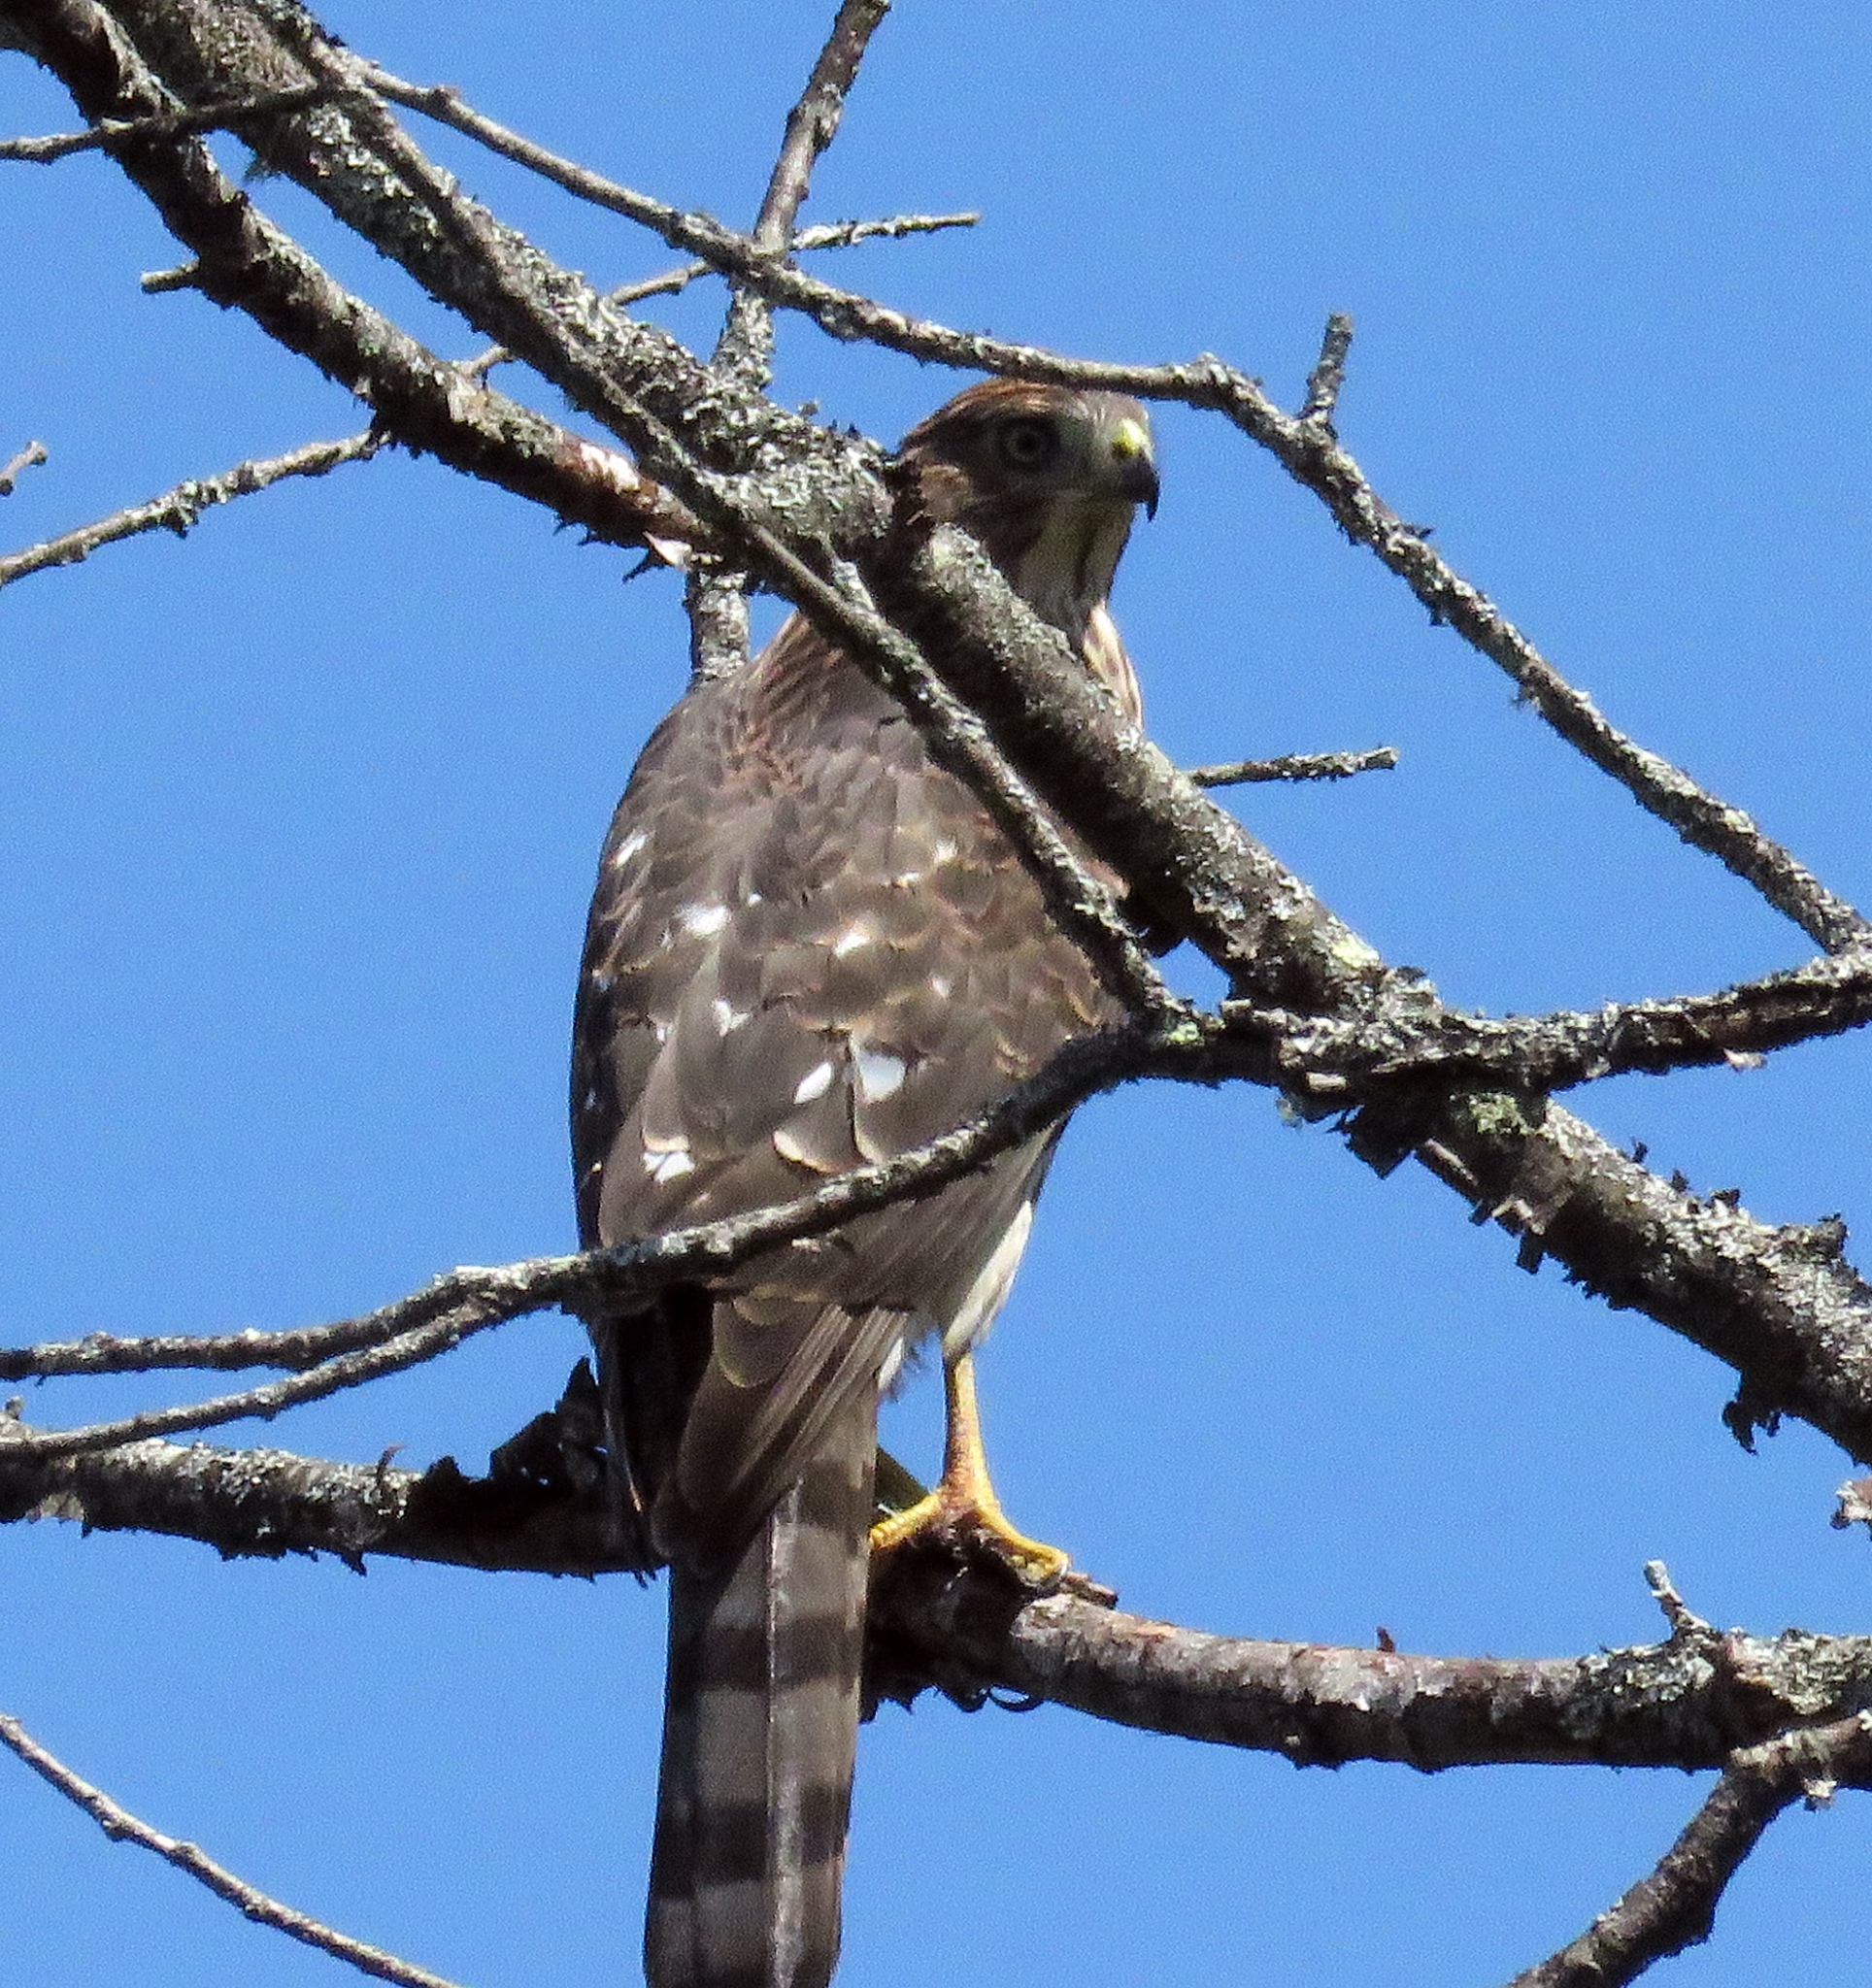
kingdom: Animalia
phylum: Chordata
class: Aves
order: Accipitriformes
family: Accipitridae
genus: Accipiter
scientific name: Accipiter cooperii
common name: Cooper's hawk
